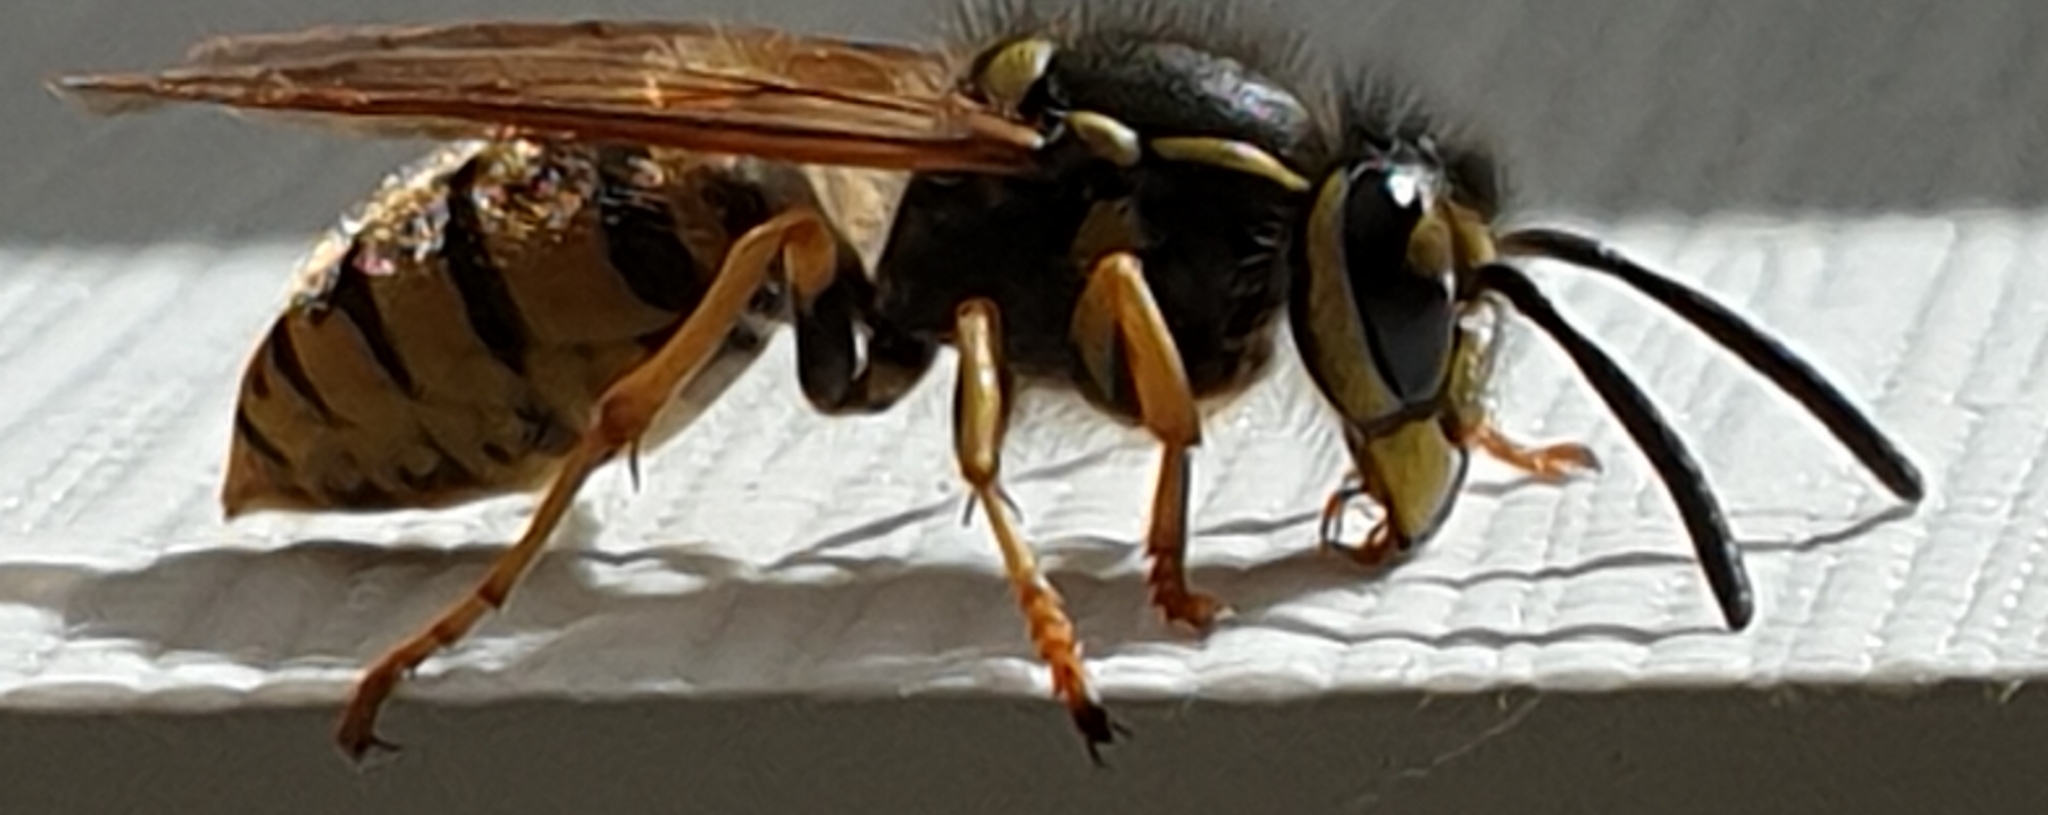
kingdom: Animalia
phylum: Arthropoda
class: Insecta
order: Hymenoptera
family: Vespidae
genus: Vespula
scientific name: Vespula germanica
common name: German wasp
